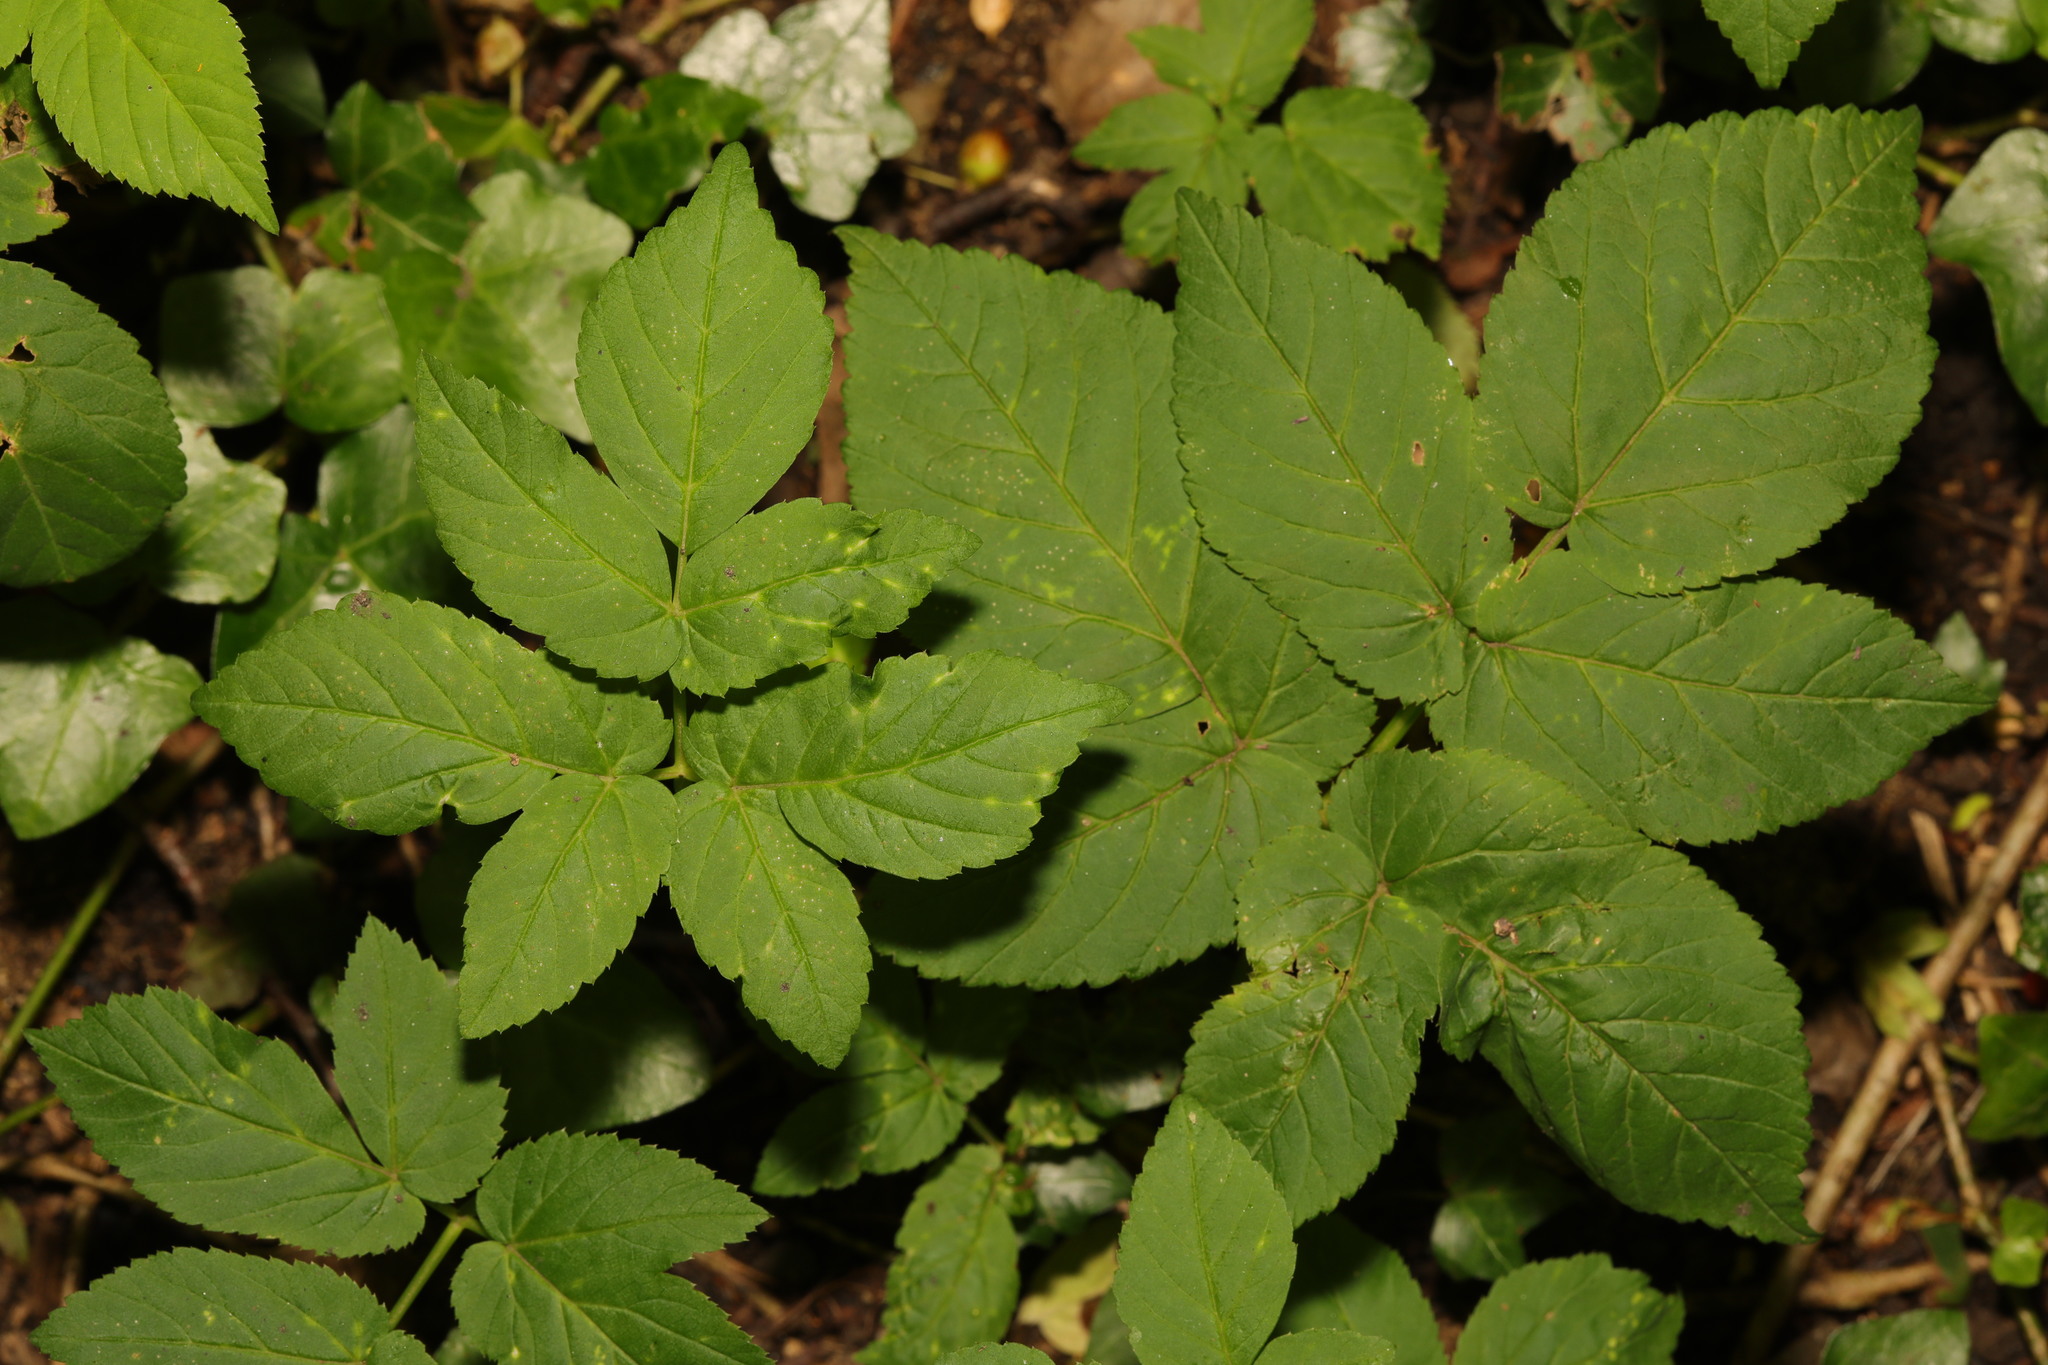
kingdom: Plantae
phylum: Tracheophyta
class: Magnoliopsida
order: Apiales
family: Apiaceae
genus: Aegopodium
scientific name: Aegopodium podagraria
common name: Ground-elder
